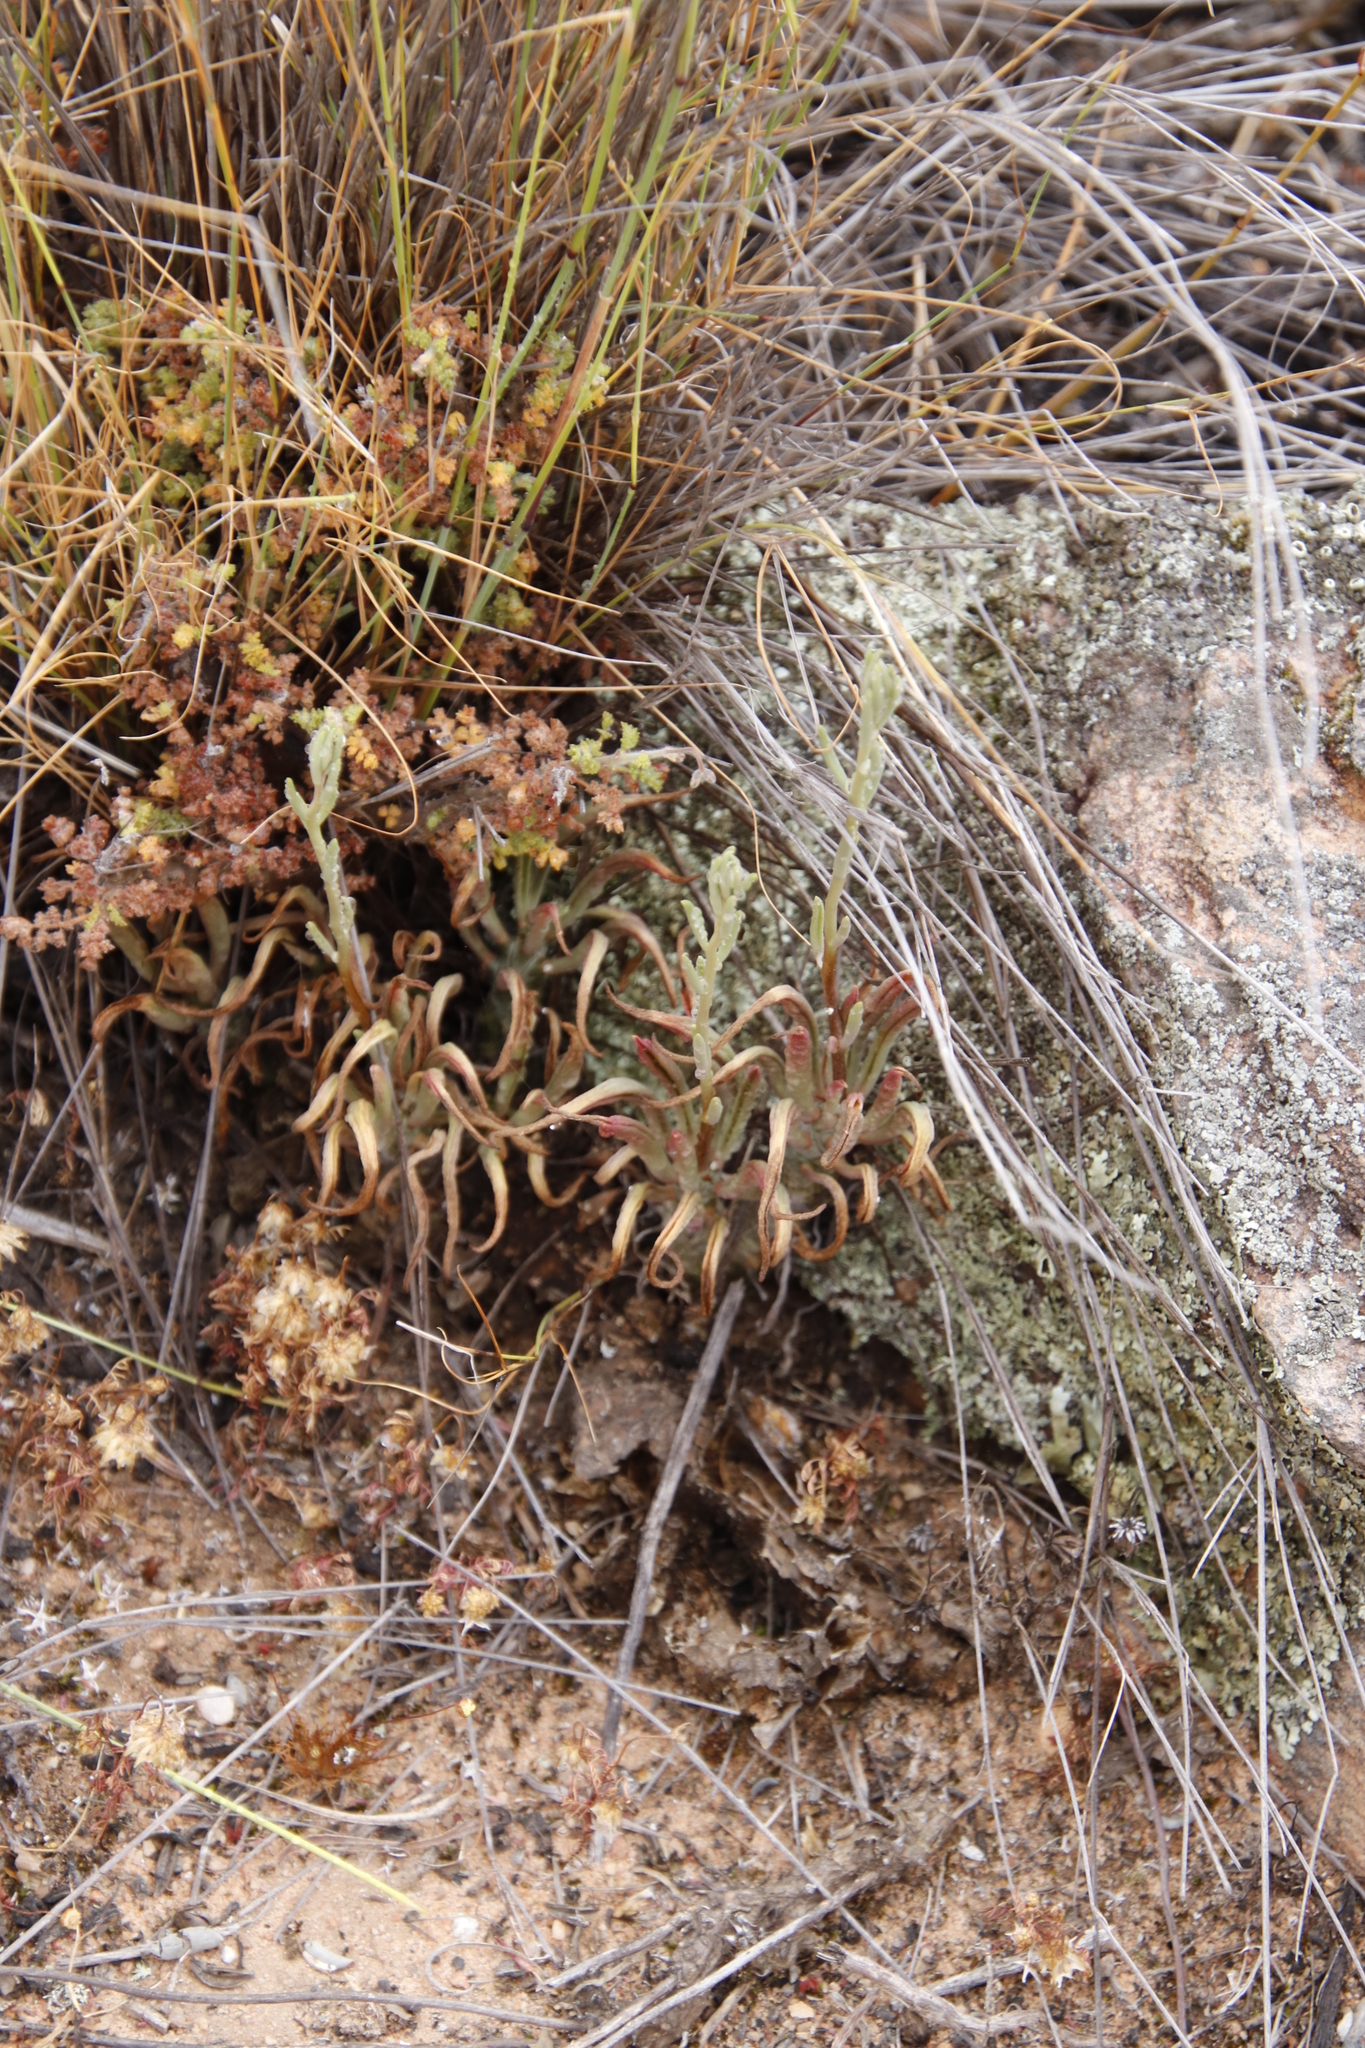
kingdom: Plantae
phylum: Tracheophyta
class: Magnoliopsida
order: Saxifragales
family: Crassulaceae
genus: Tylecodon
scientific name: Tylecodon striatus
